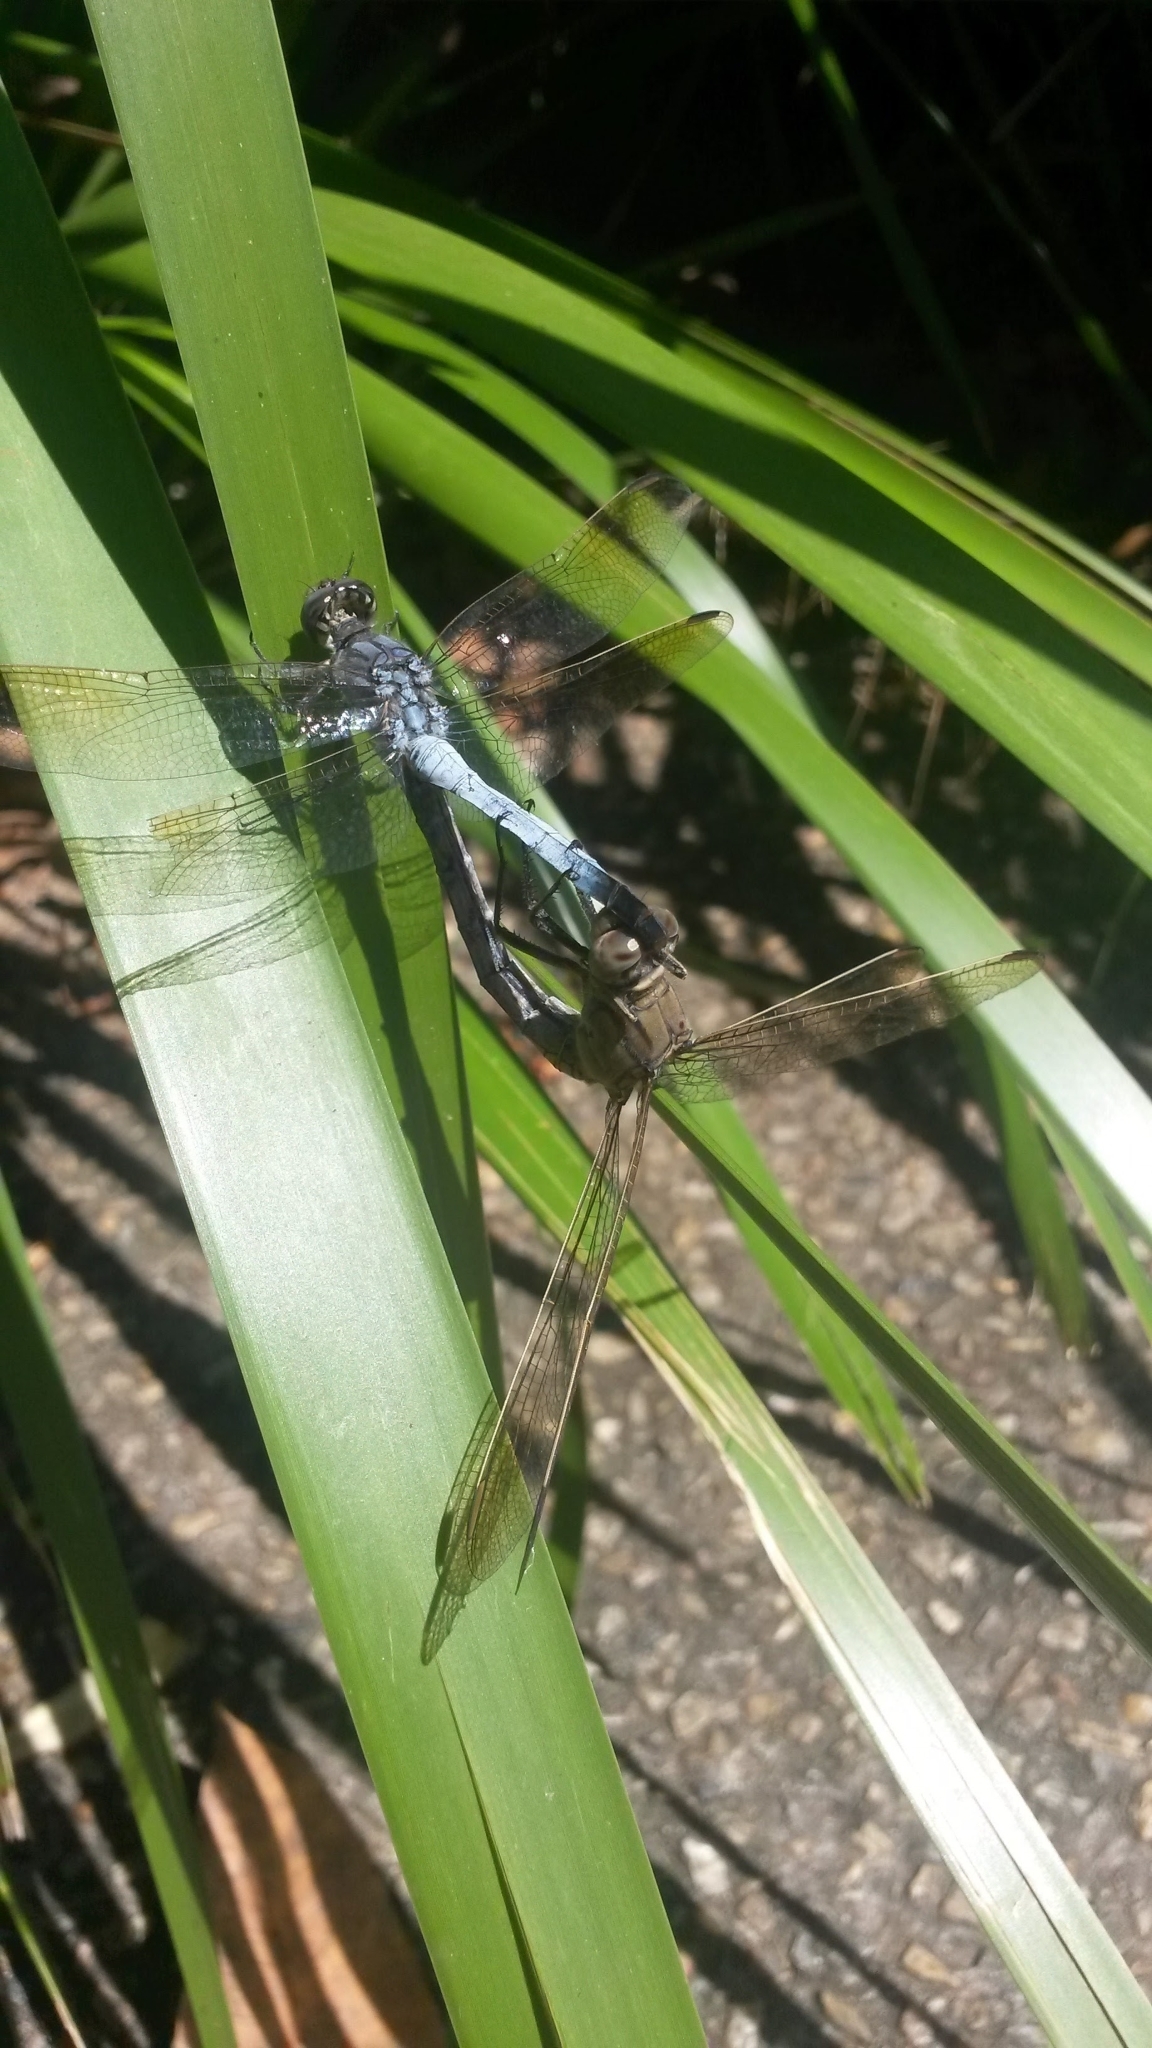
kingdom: Animalia
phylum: Arthropoda
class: Insecta
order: Odonata
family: Libellulidae
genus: Orthetrum
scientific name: Orthetrum caledonicum
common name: Blue skimmer
